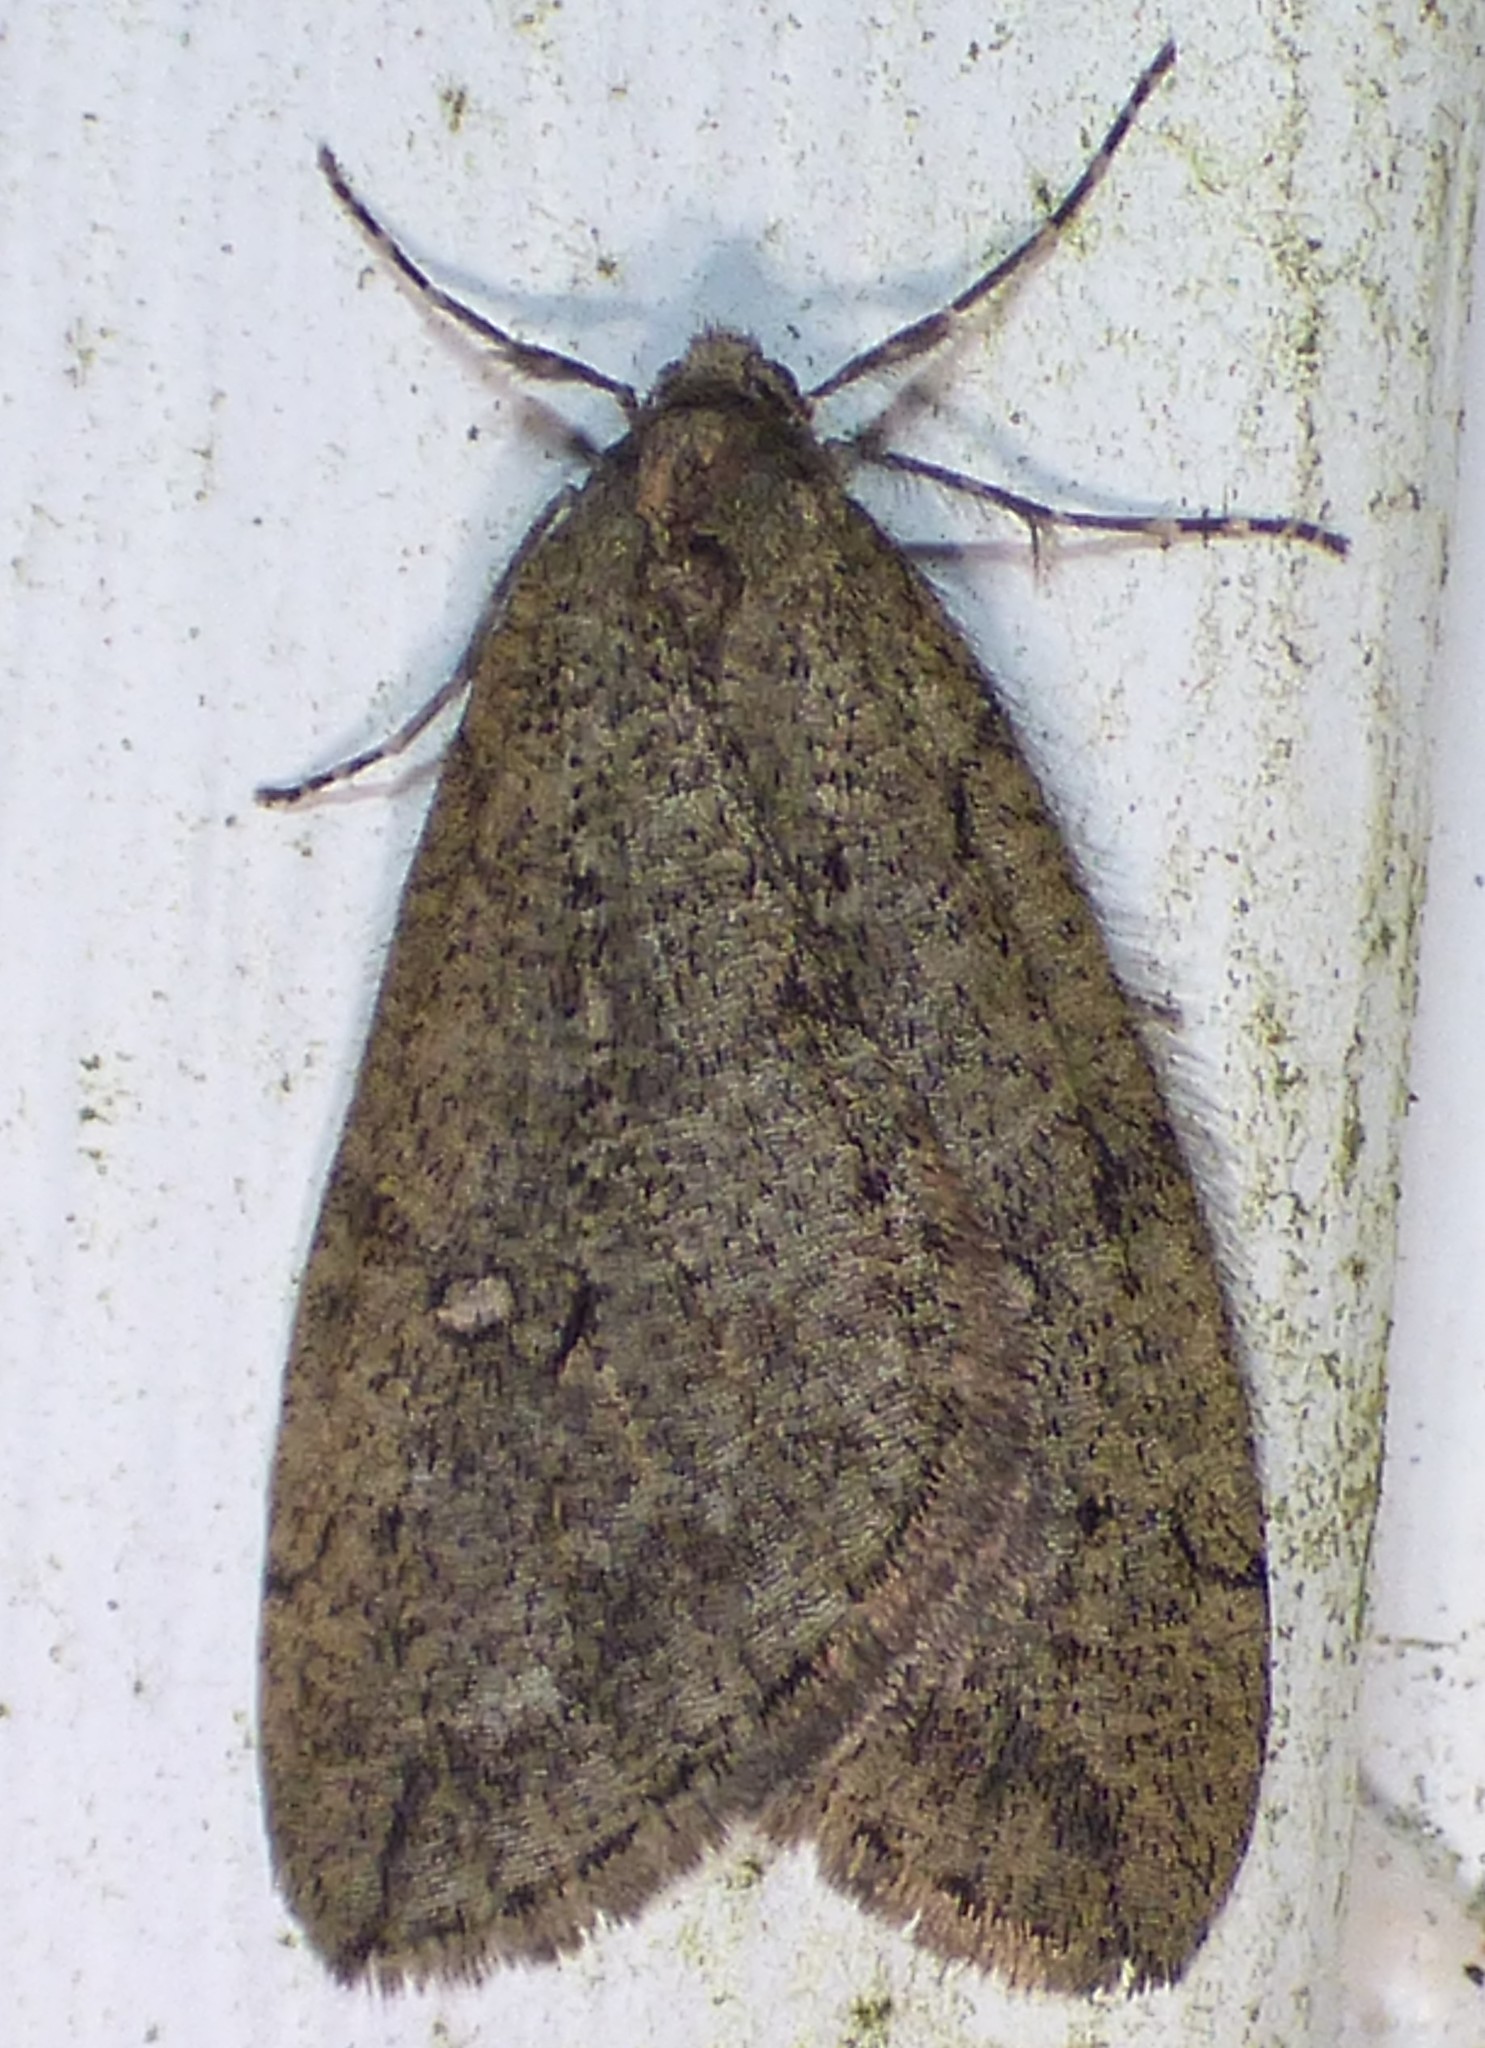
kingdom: Animalia
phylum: Arthropoda
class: Insecta
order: Lepidoptera
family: Geometridae
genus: Paleacrita
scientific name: Paleacrita merriccata
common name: White-spotted canker worm
